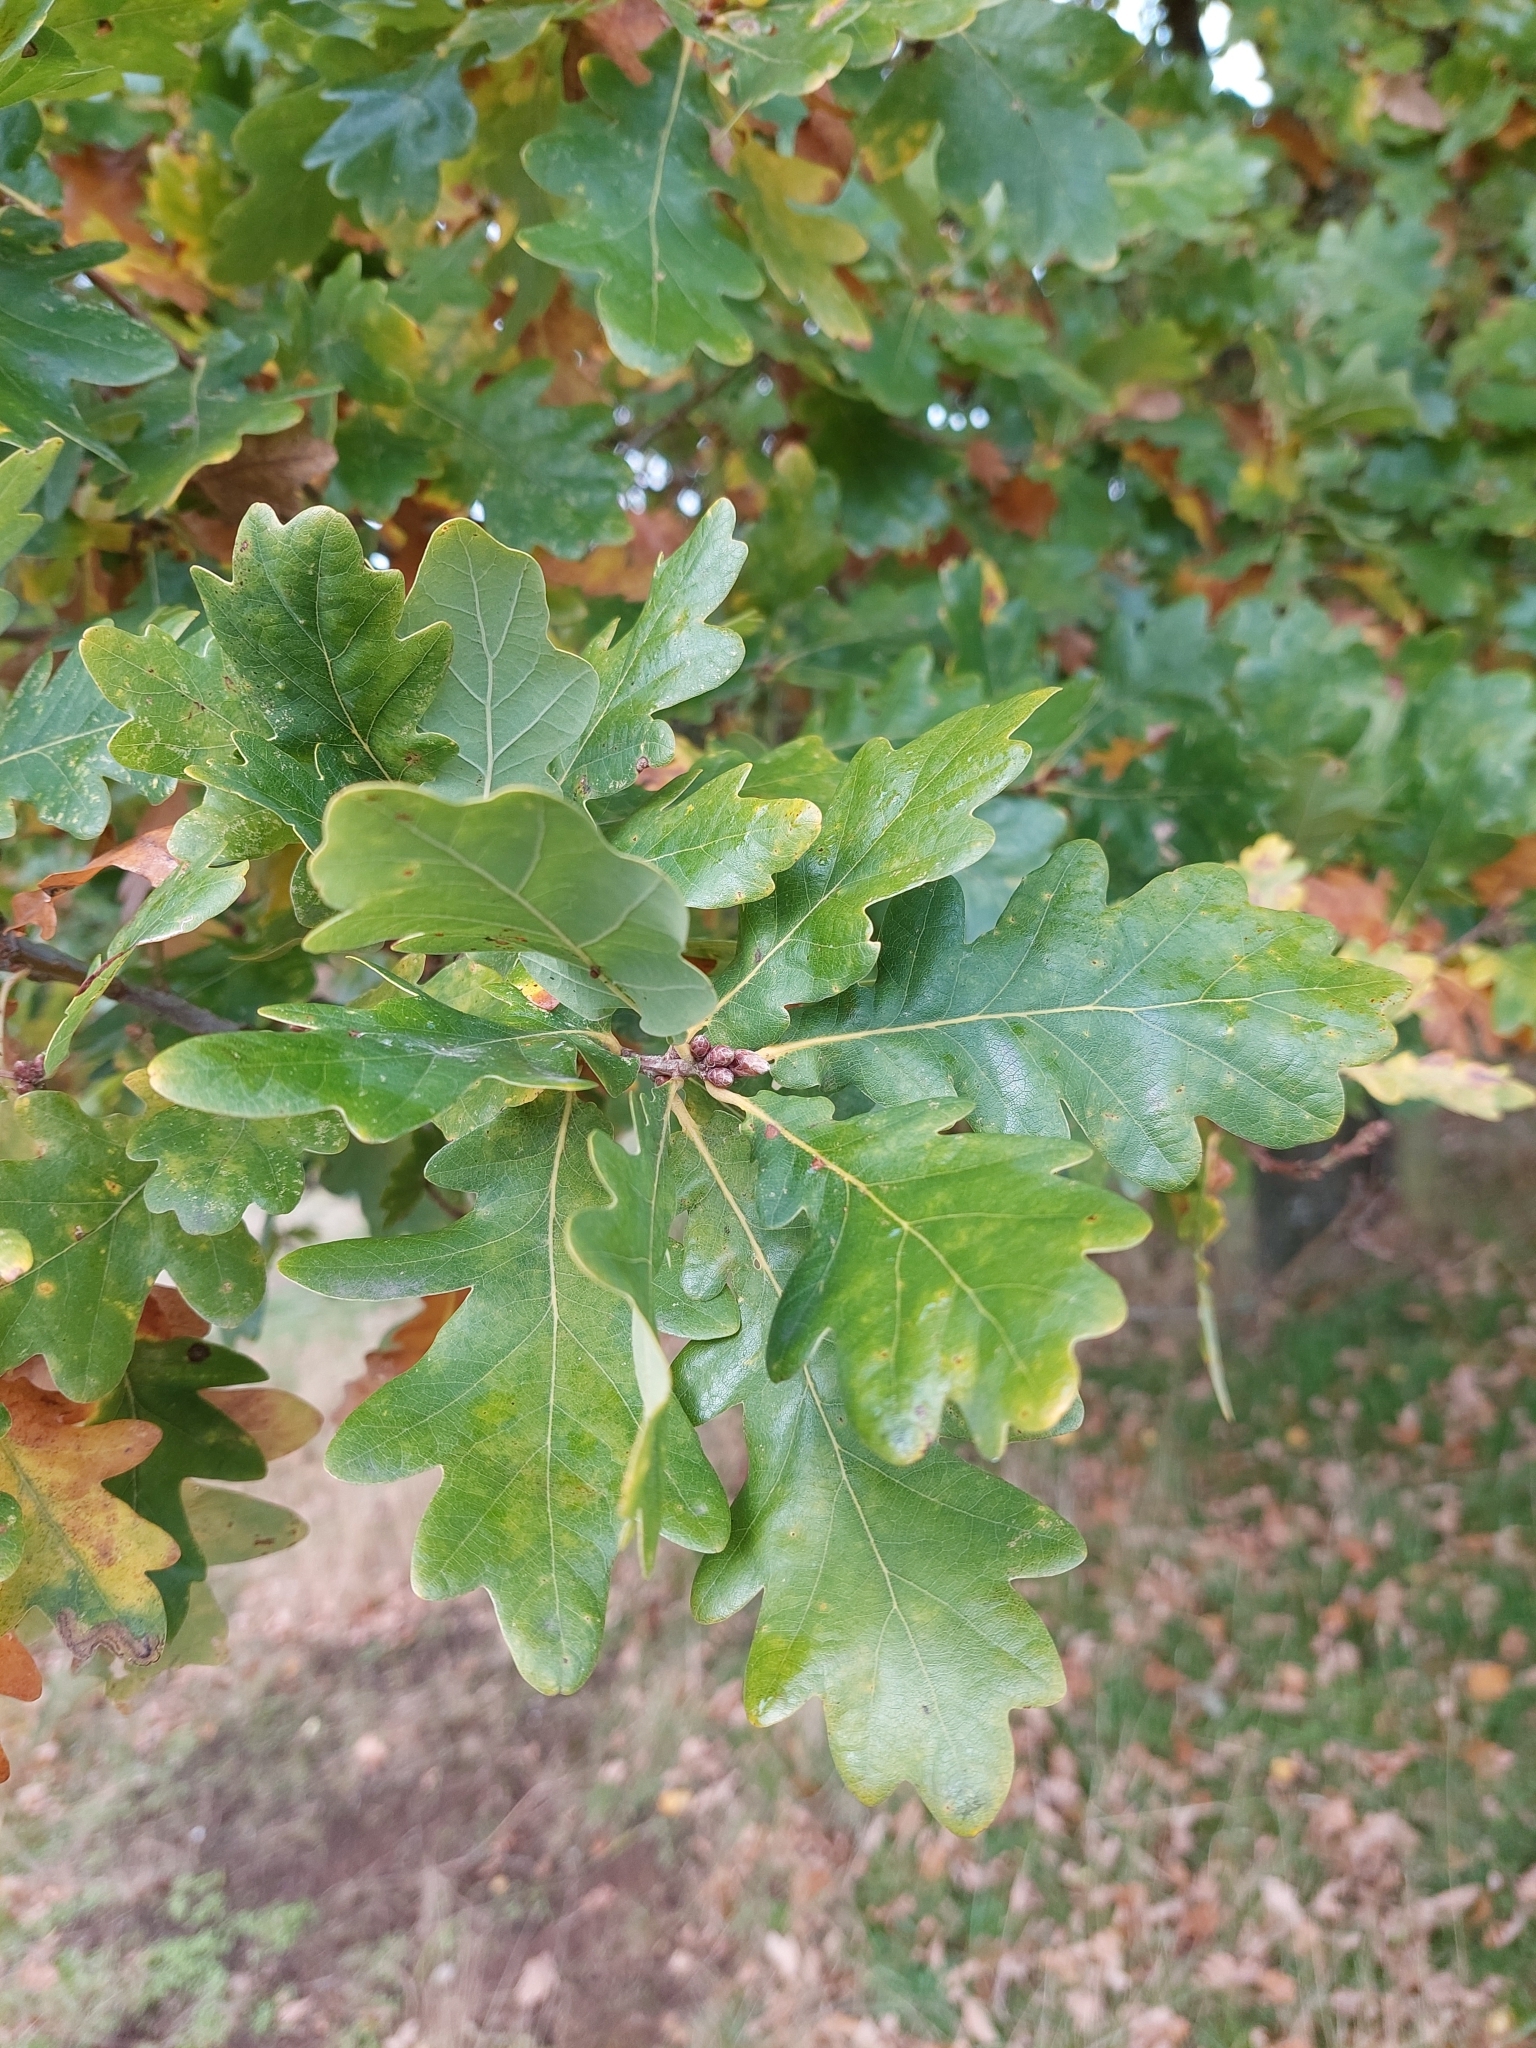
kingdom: Plantae
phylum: Tracheophyta
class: Magnoliopsida
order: Fagales
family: Fagaceae
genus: Quercus
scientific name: Quercus robur
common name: Pedunculate oak
